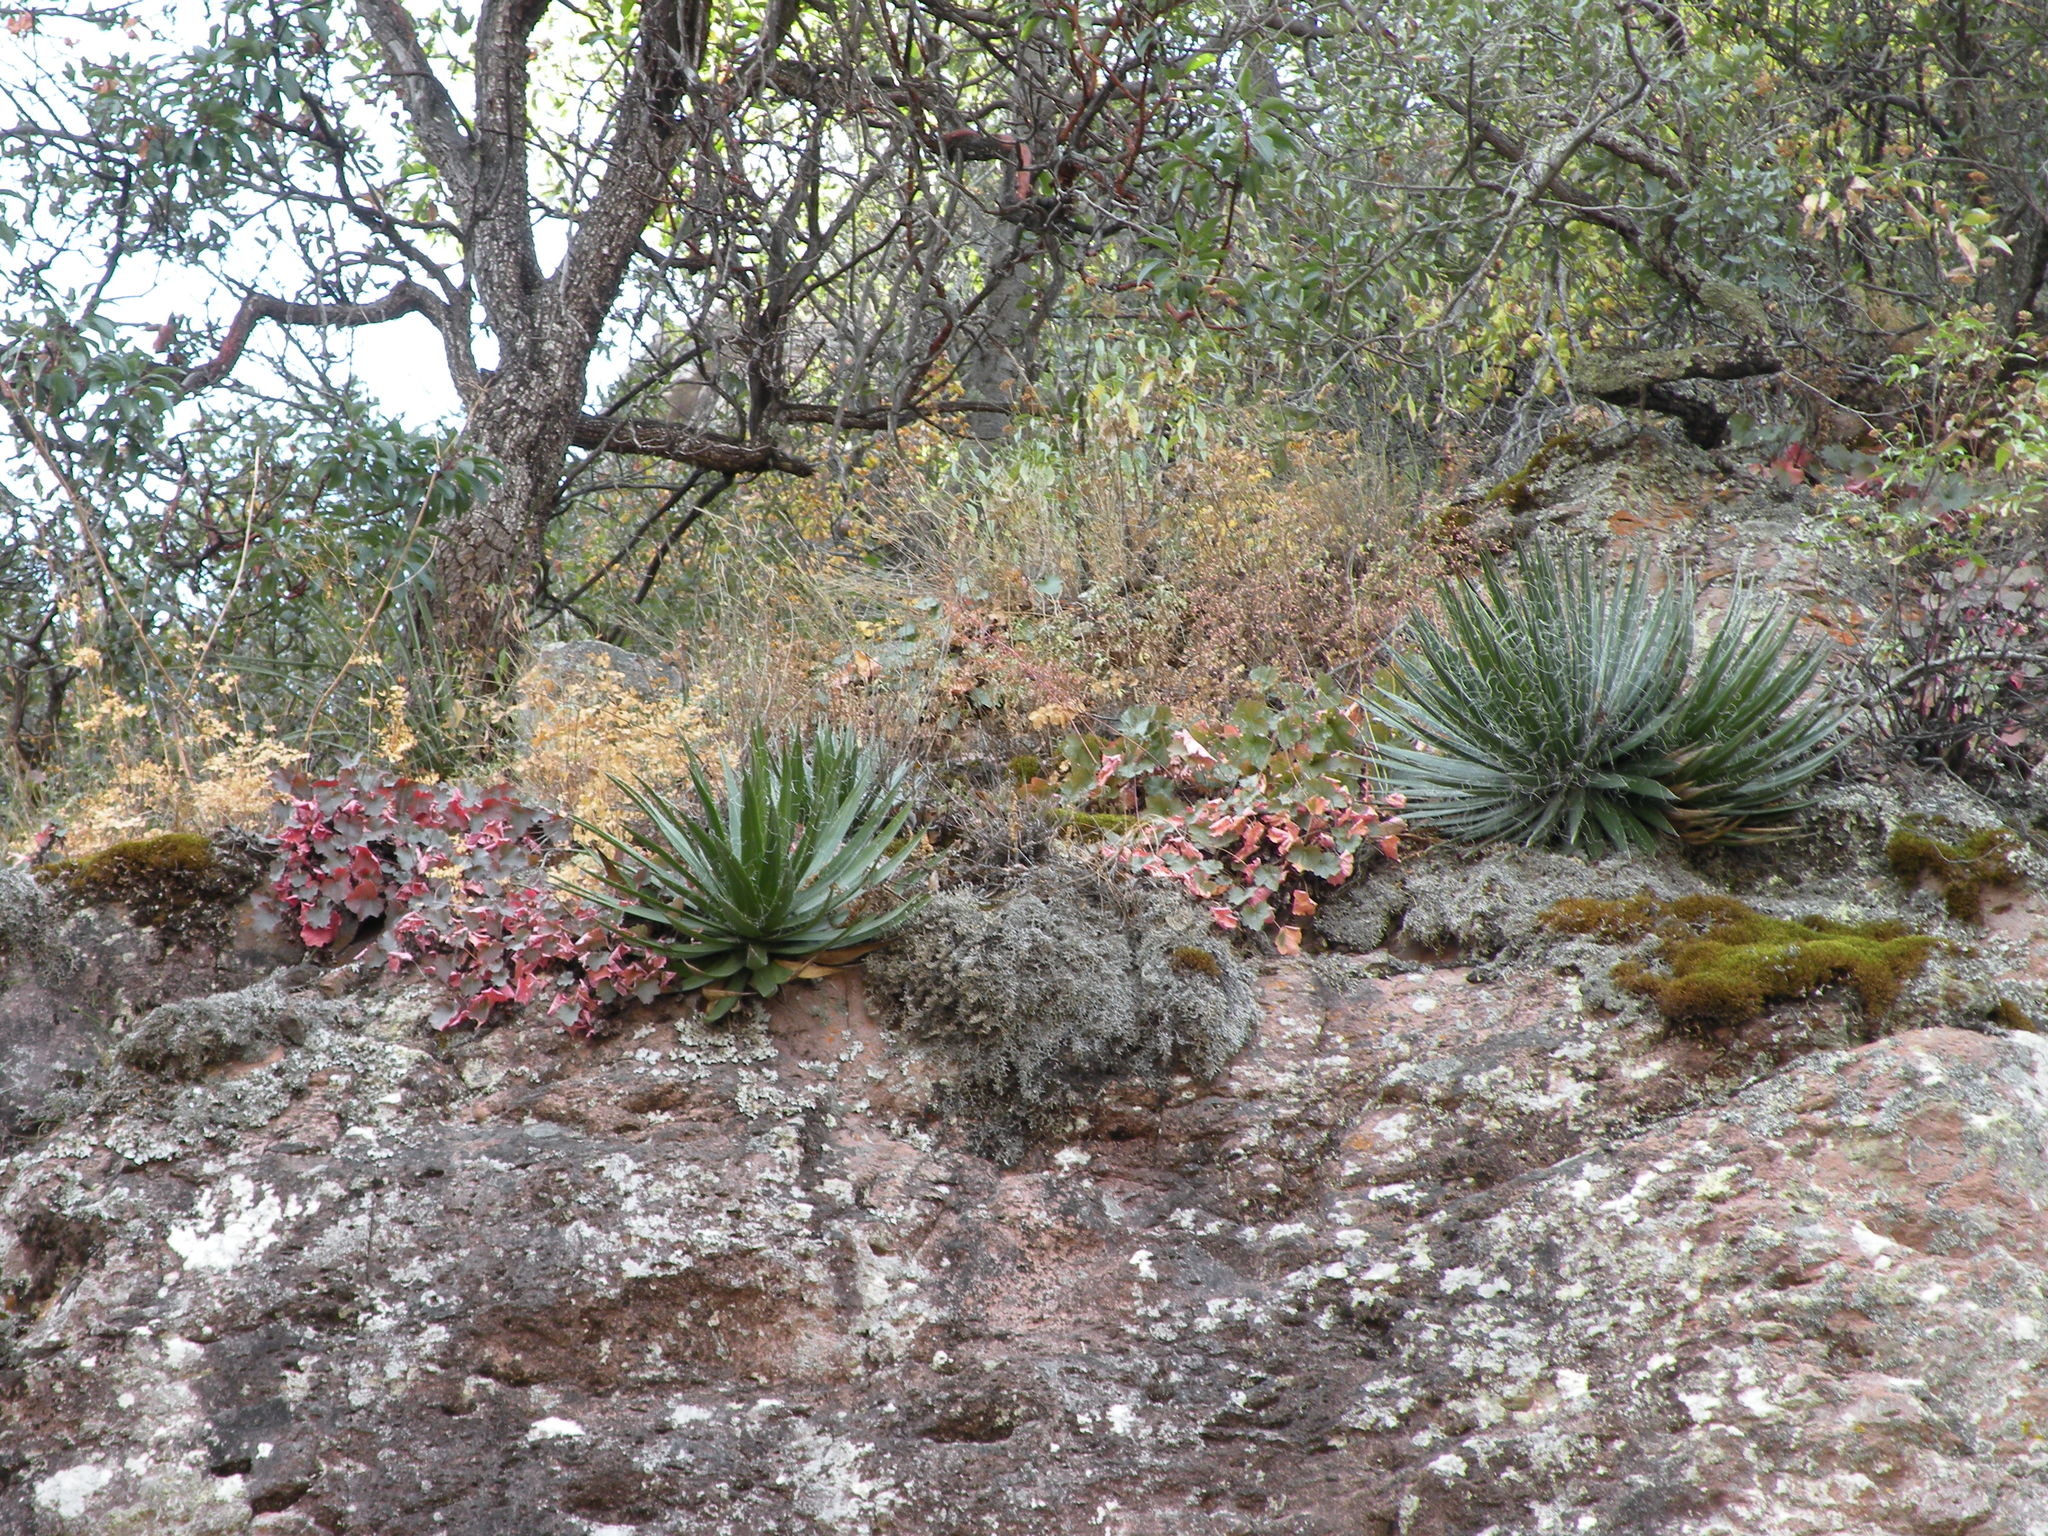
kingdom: Plantae
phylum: Tracheophyta
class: Liliopsida
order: Asparagales
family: Asparagaceae
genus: Agave
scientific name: Agave schidigera
